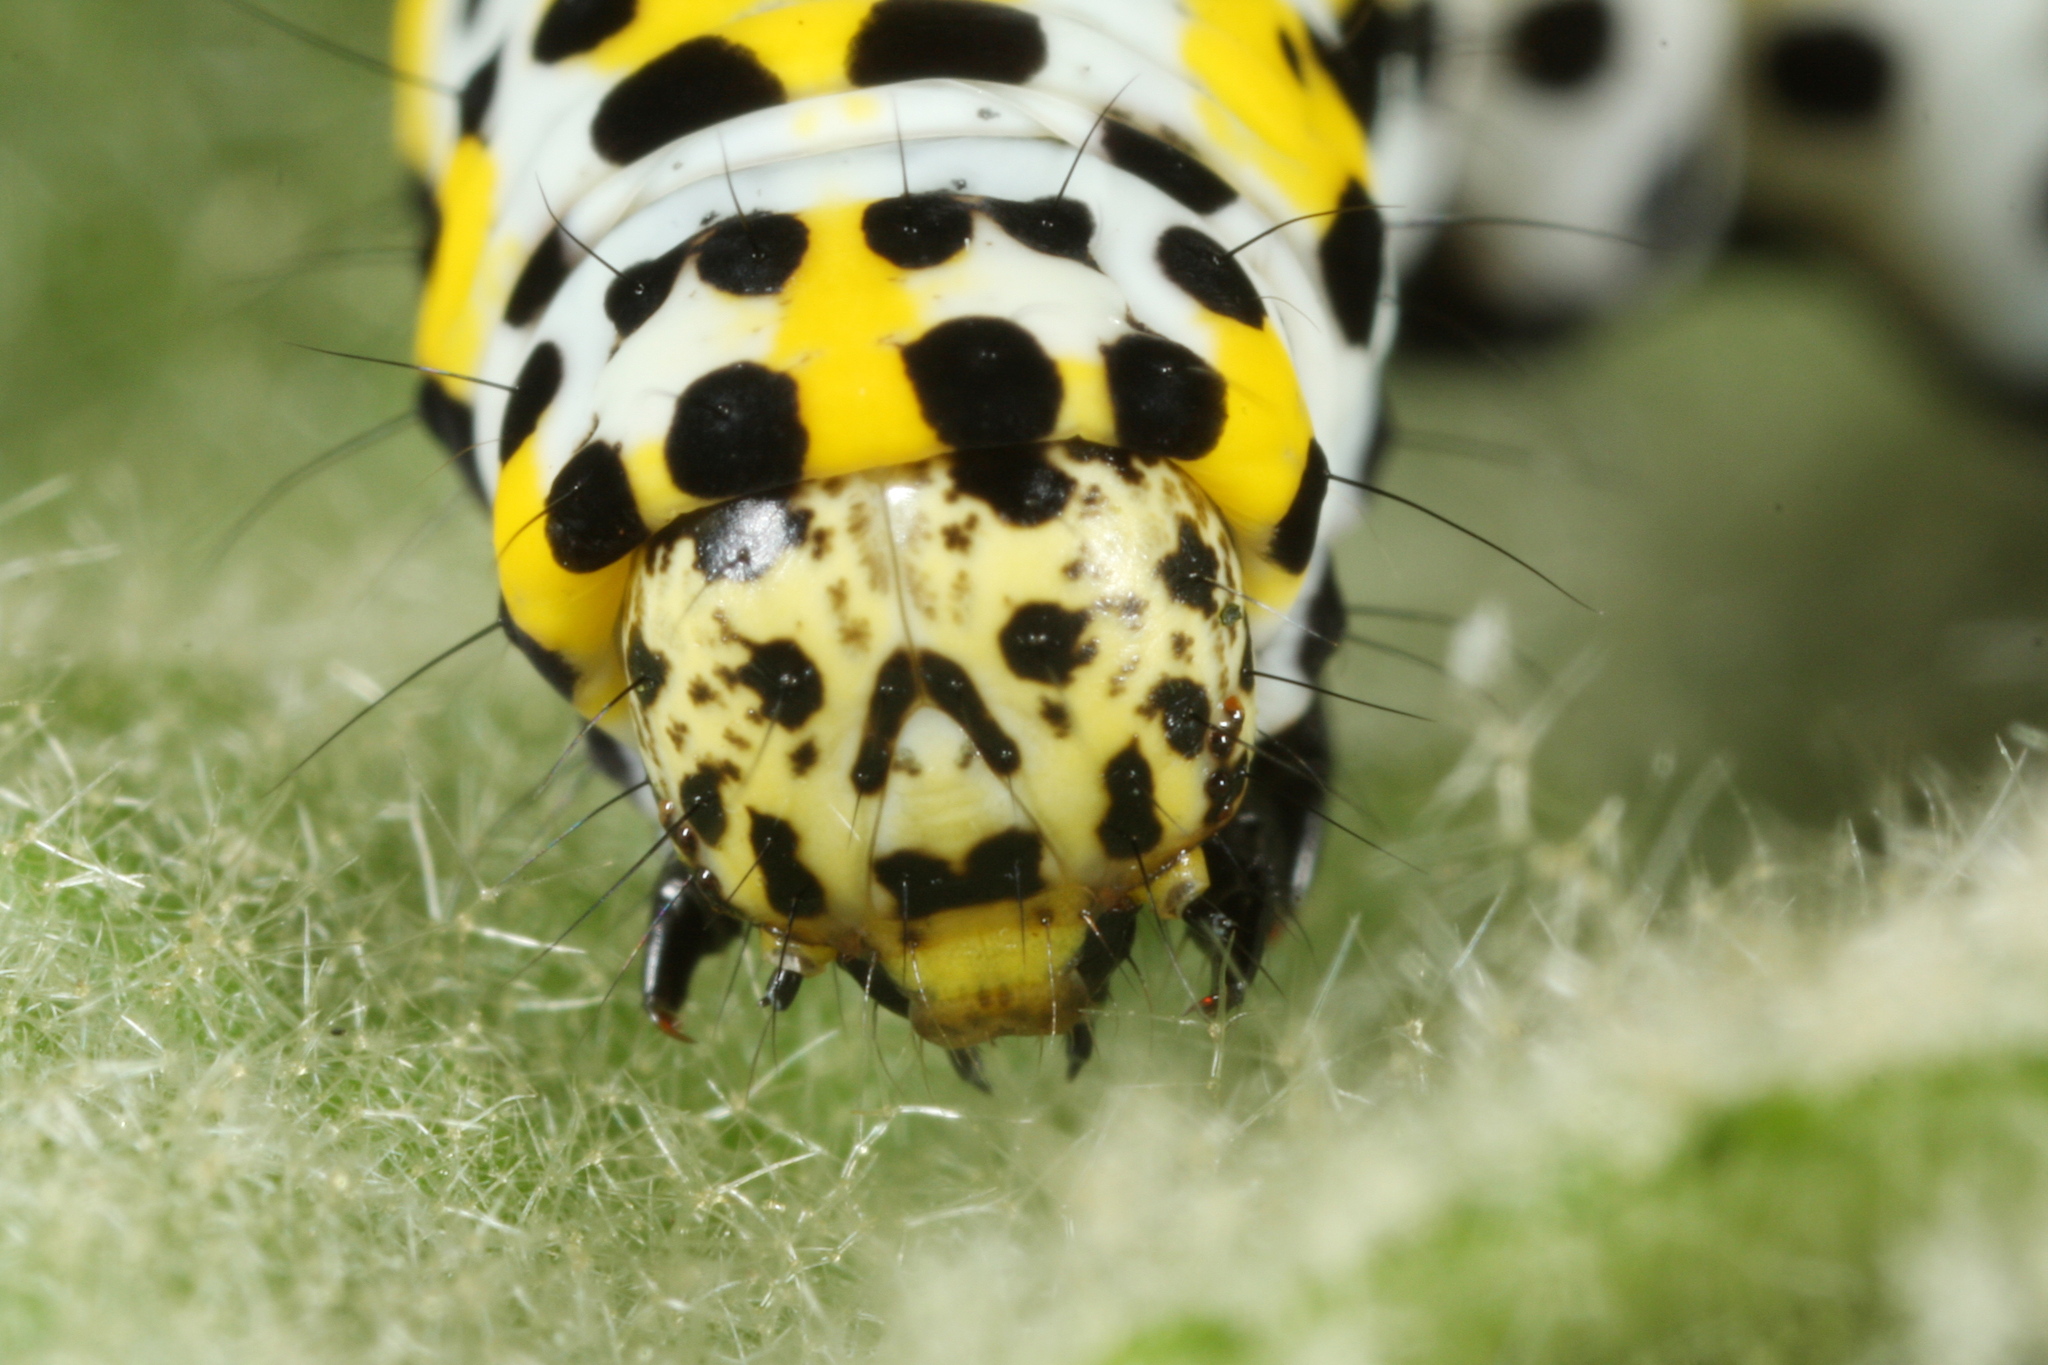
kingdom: Animalia
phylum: Arthropoda
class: Insecta
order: Lepidoptera
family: Noctuidae
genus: Cucullia
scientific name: Cucullia verbasci
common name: Mullein
